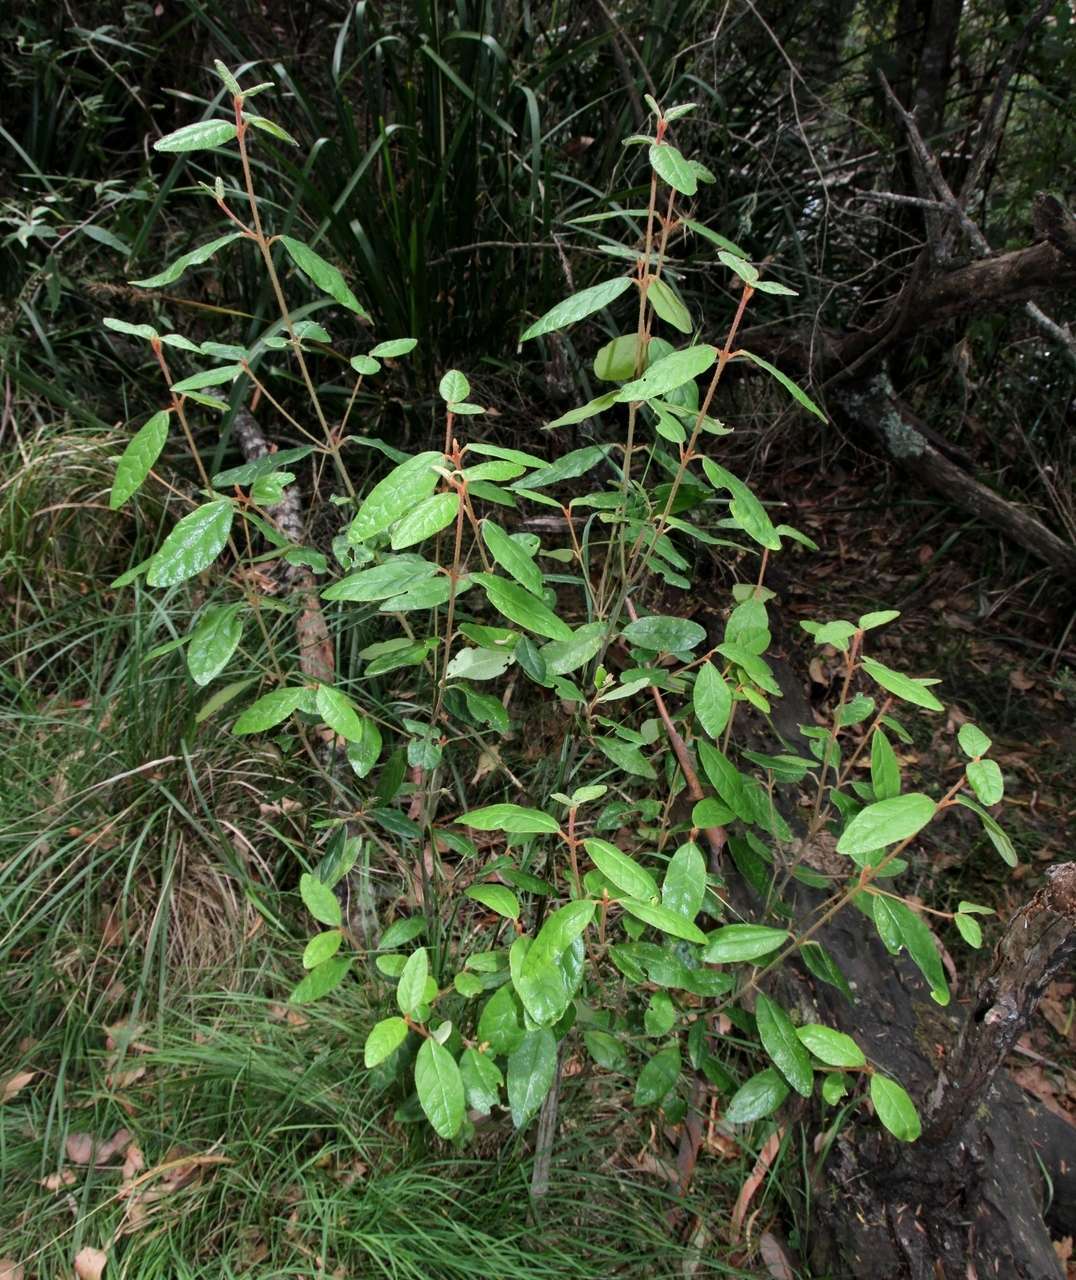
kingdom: Plantae
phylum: Tracheophyta
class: Magnoliopsida
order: Sapindales
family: Rutaceae
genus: Correa
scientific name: Correa lawrenceana
